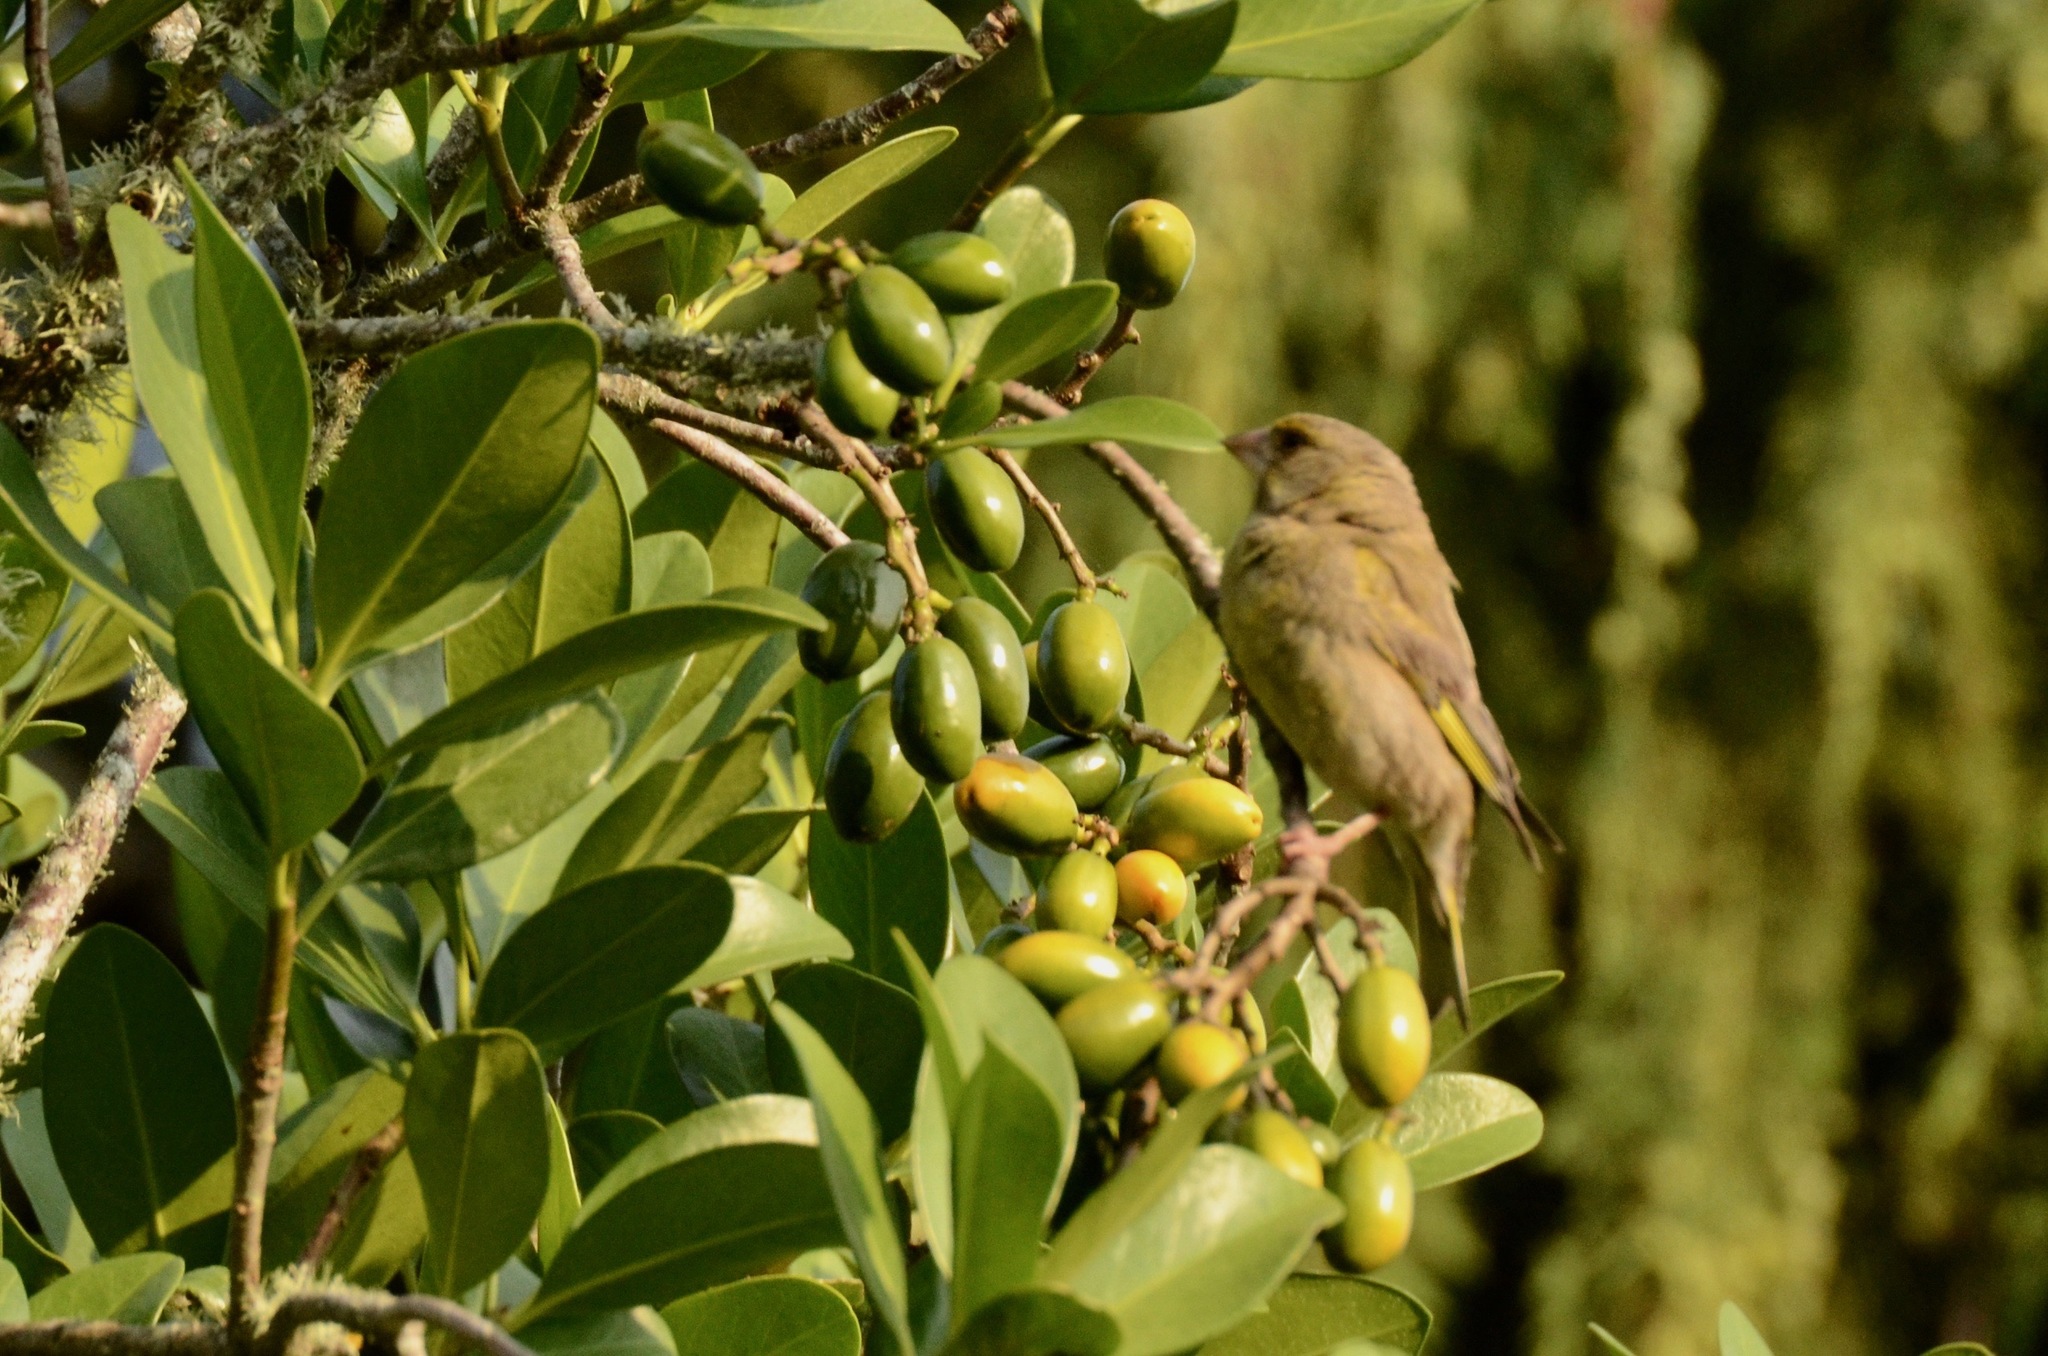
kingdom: Plantae
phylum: Tracheophyta
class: Liliopsida
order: Poales
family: Poaceae
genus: Chloris
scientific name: Chloris chloris
